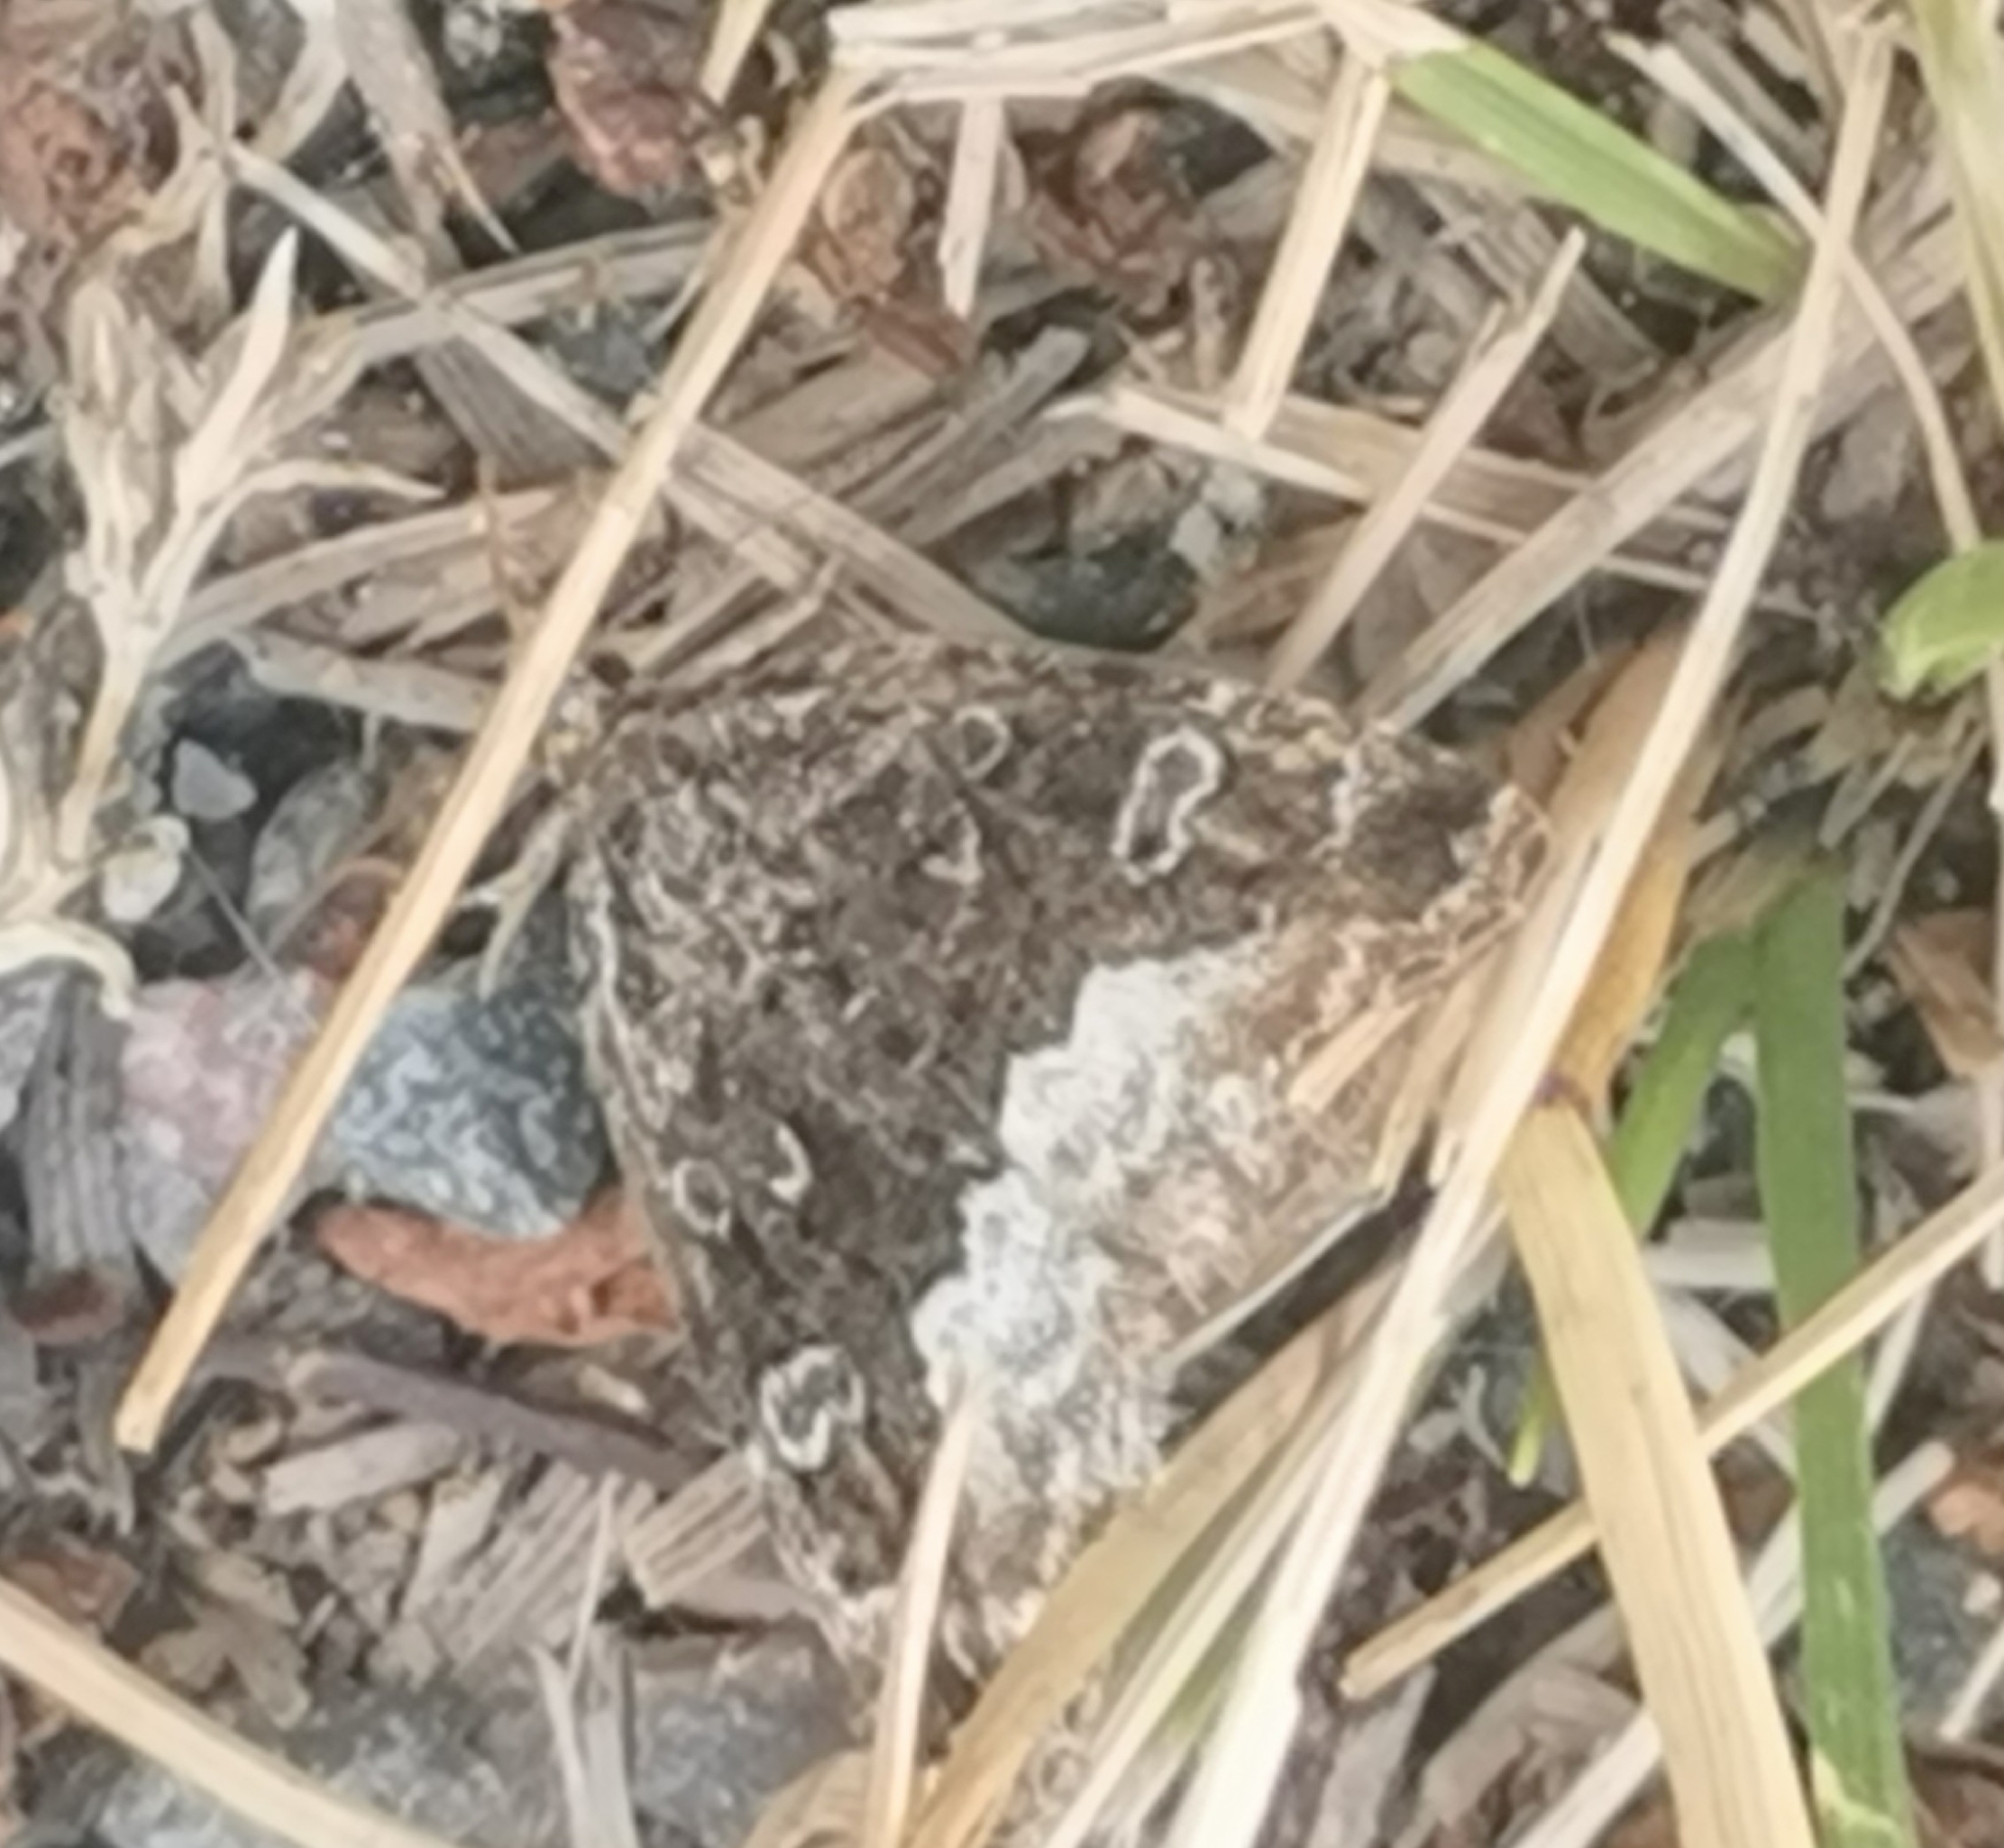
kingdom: Animalia
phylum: Arthropoda
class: Insecta
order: Lepidoptera
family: Noctuidae
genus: Deltote
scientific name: Deltote pygarga
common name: Marbled white spot
